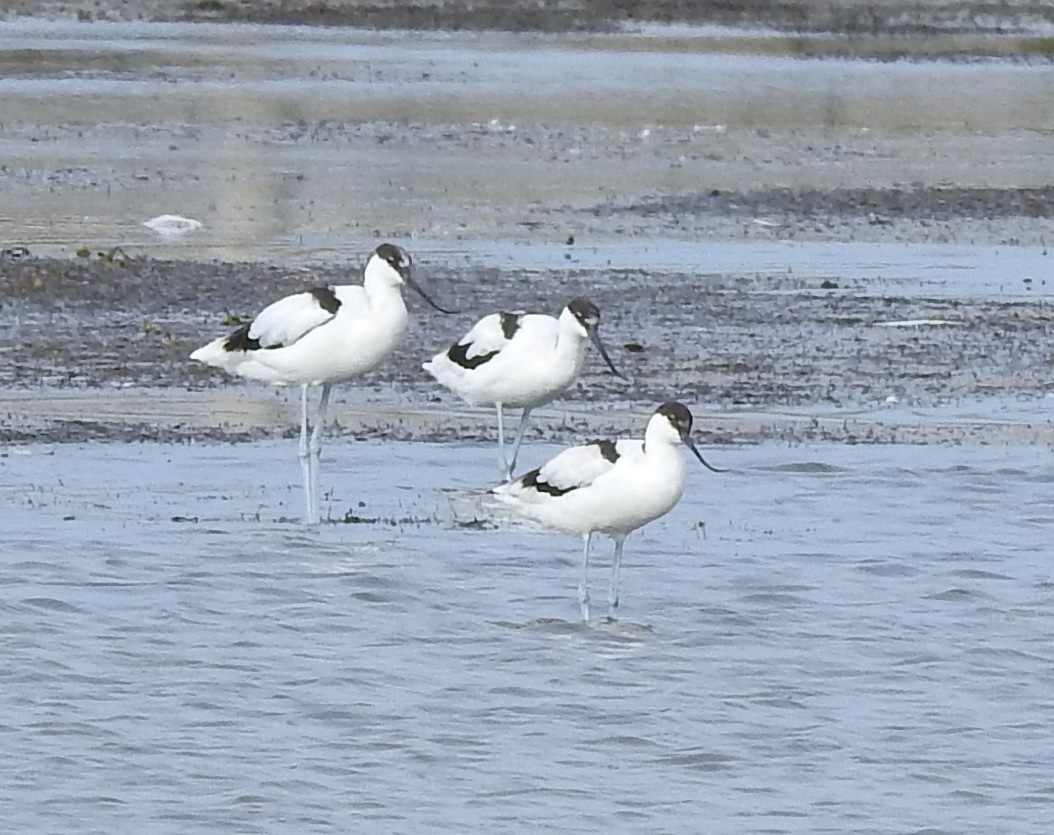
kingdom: Animalia
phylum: Chordata
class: Aves
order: Charadriiformes
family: Recurvirostridae
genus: Recurvirostra
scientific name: Recurvirostra avosetta
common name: Pied avocet
